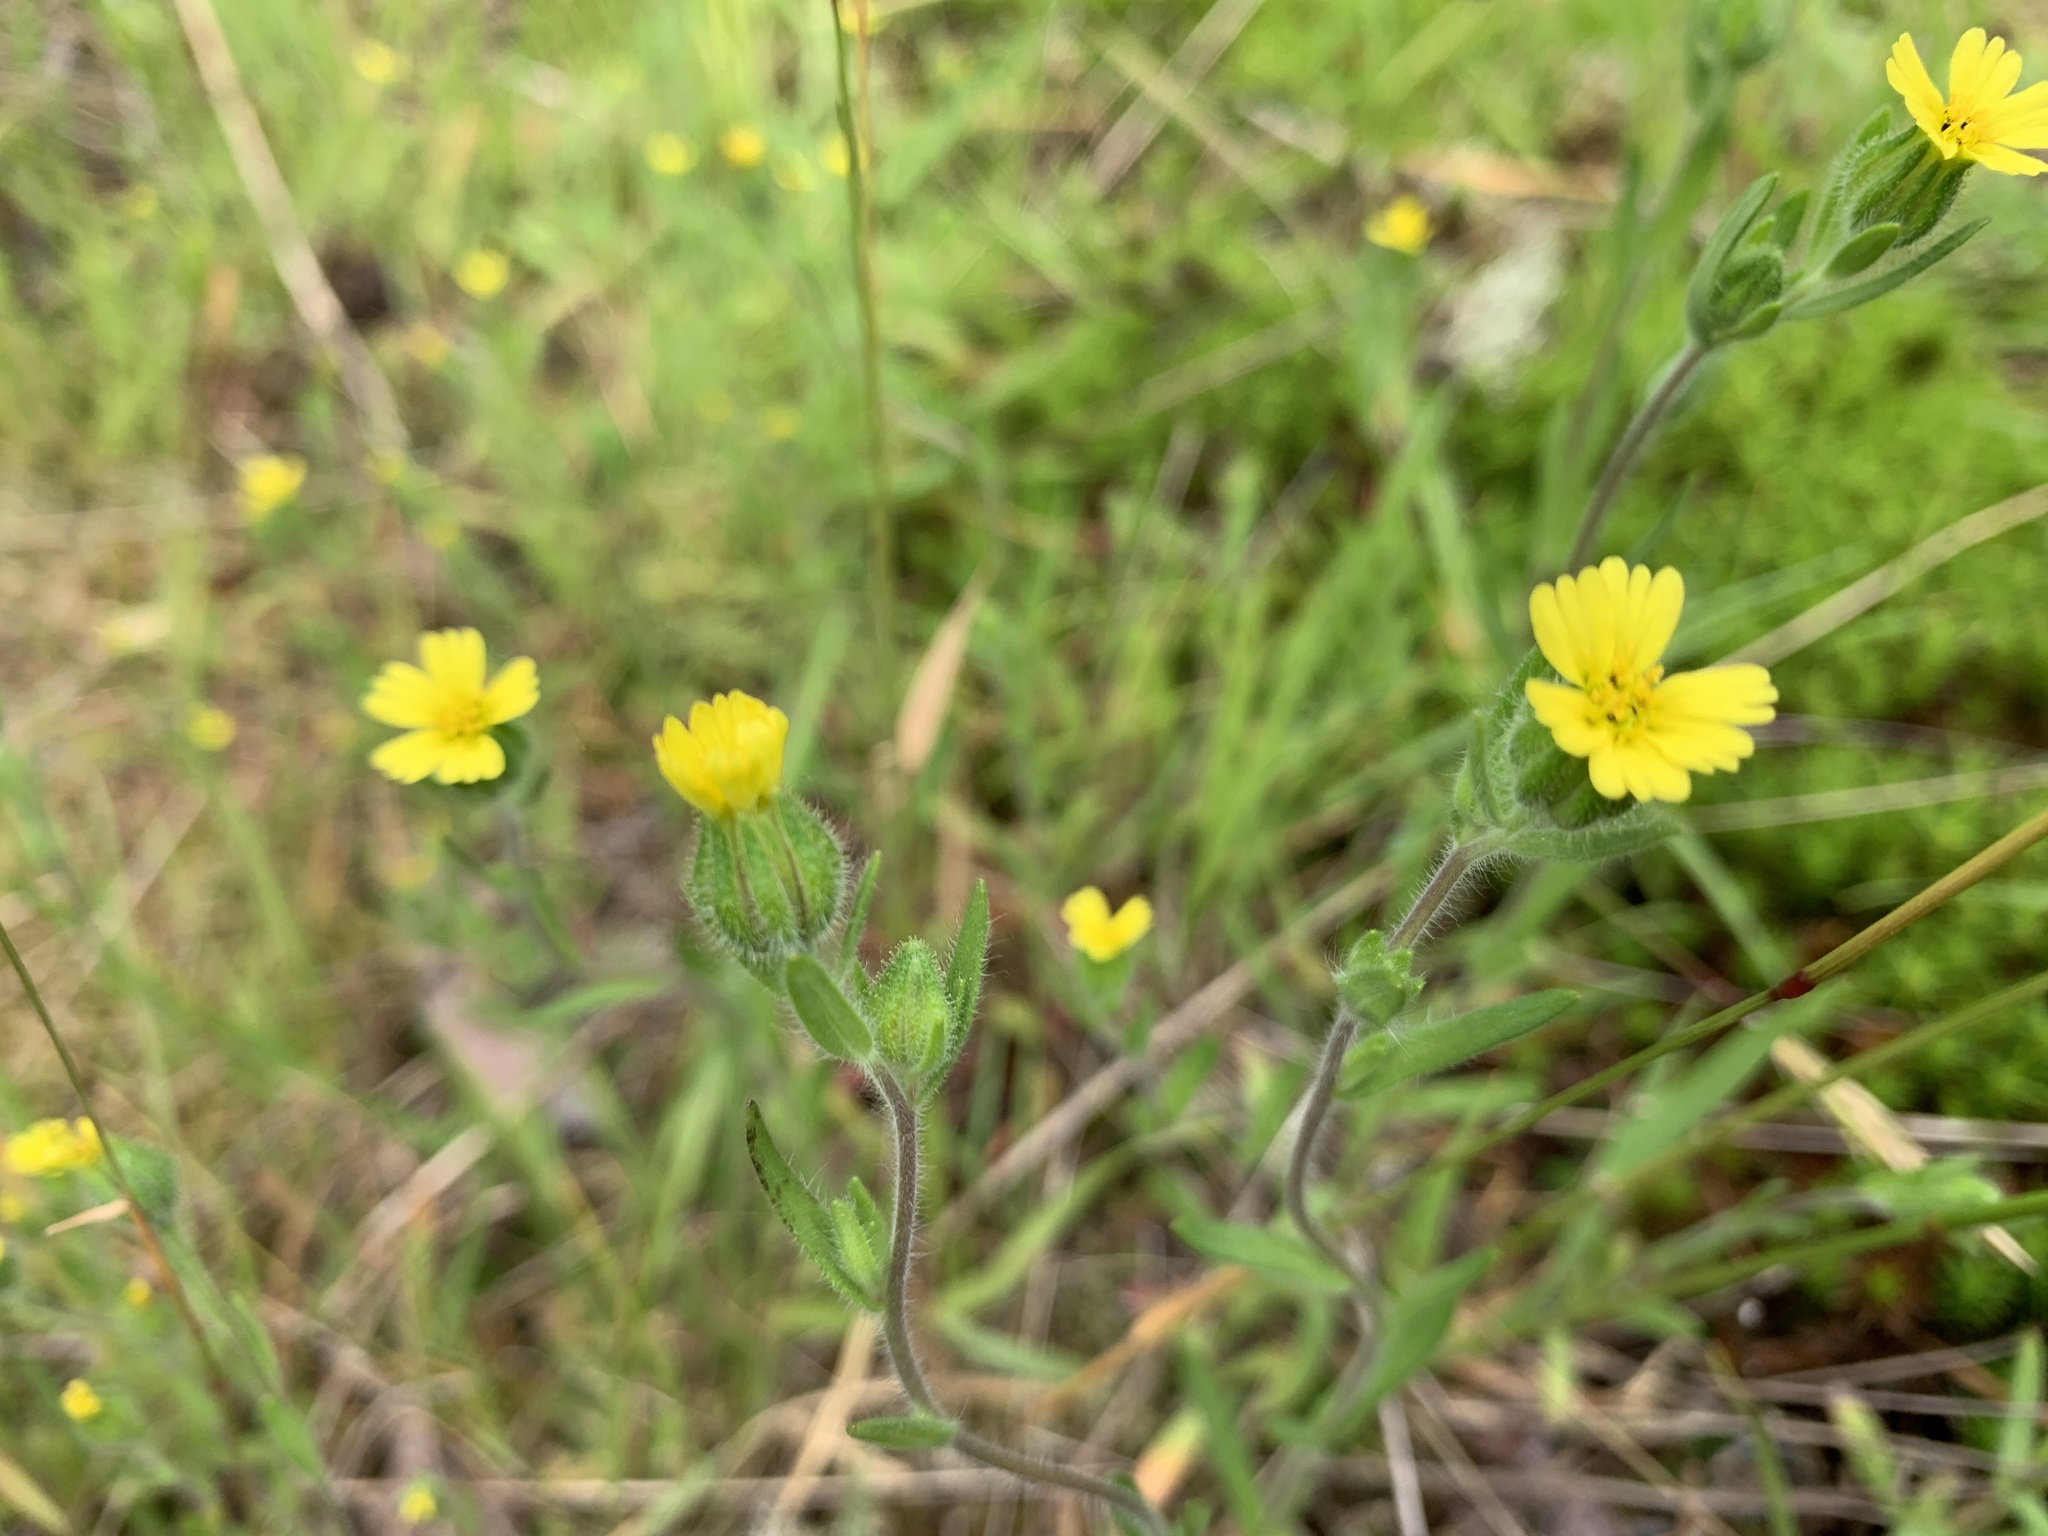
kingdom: Plantae
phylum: Tracheophyta
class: Magnoliopsida
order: Asterales
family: Asteraceae
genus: Madia
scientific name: Madia gracilis
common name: Grassy tarweed
